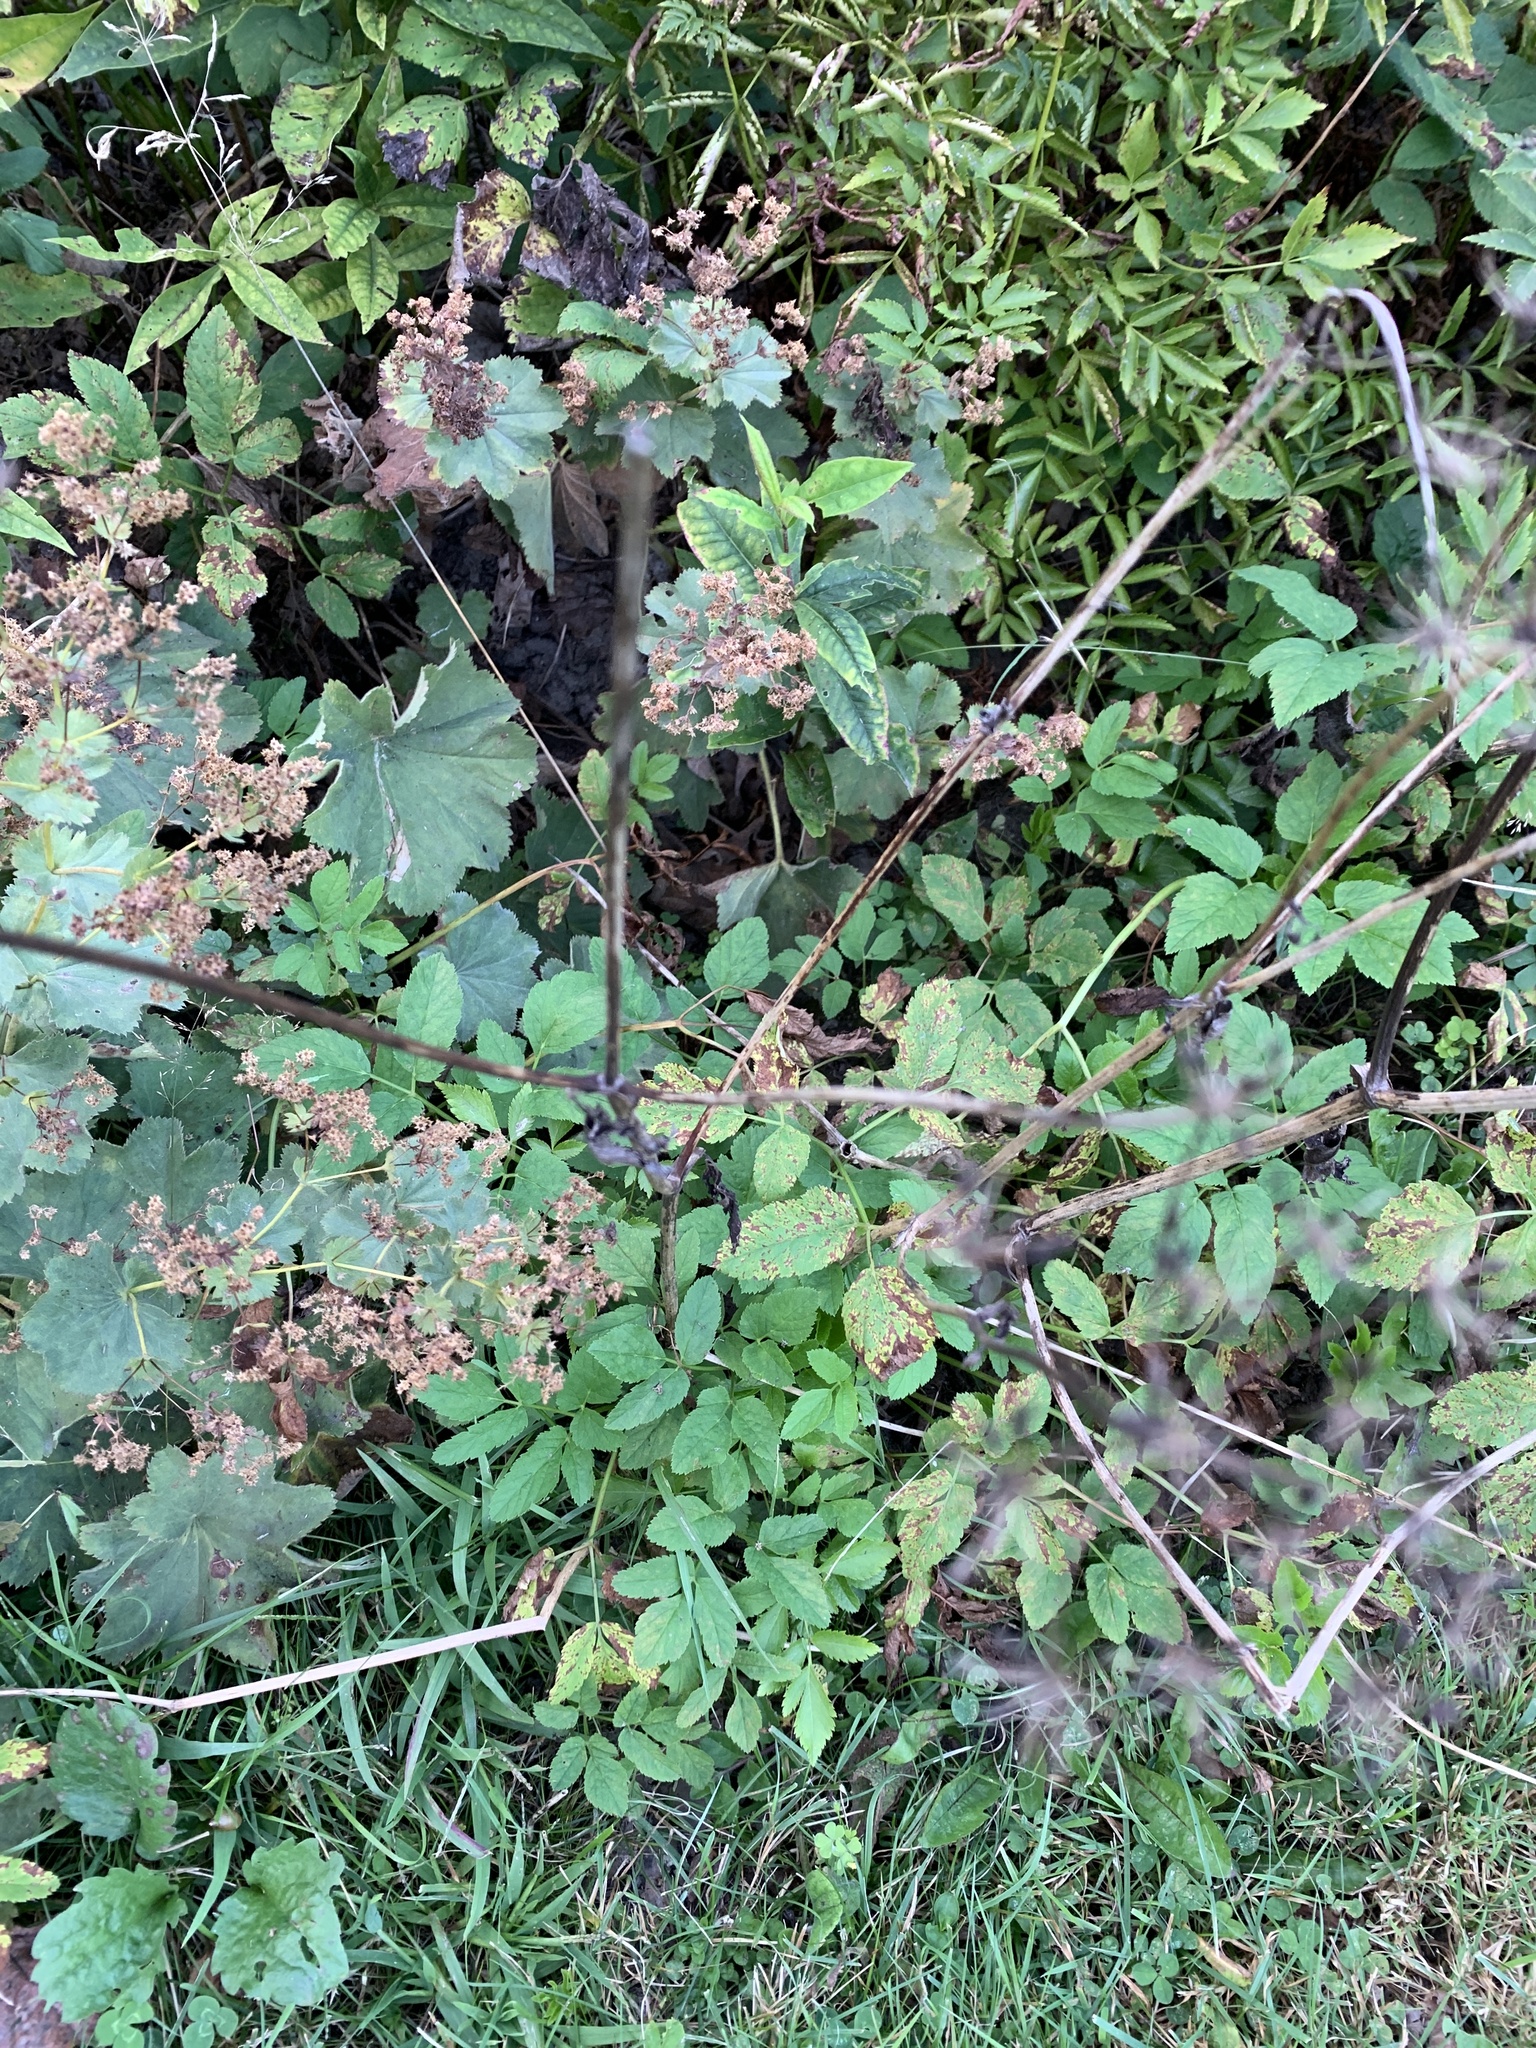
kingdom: Plantae
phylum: Tracheophyta
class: Magnoliopsida
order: Apiales
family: Apiaceae
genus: Aegopodium
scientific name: Aegopodium podagraria
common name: Ground-elder
